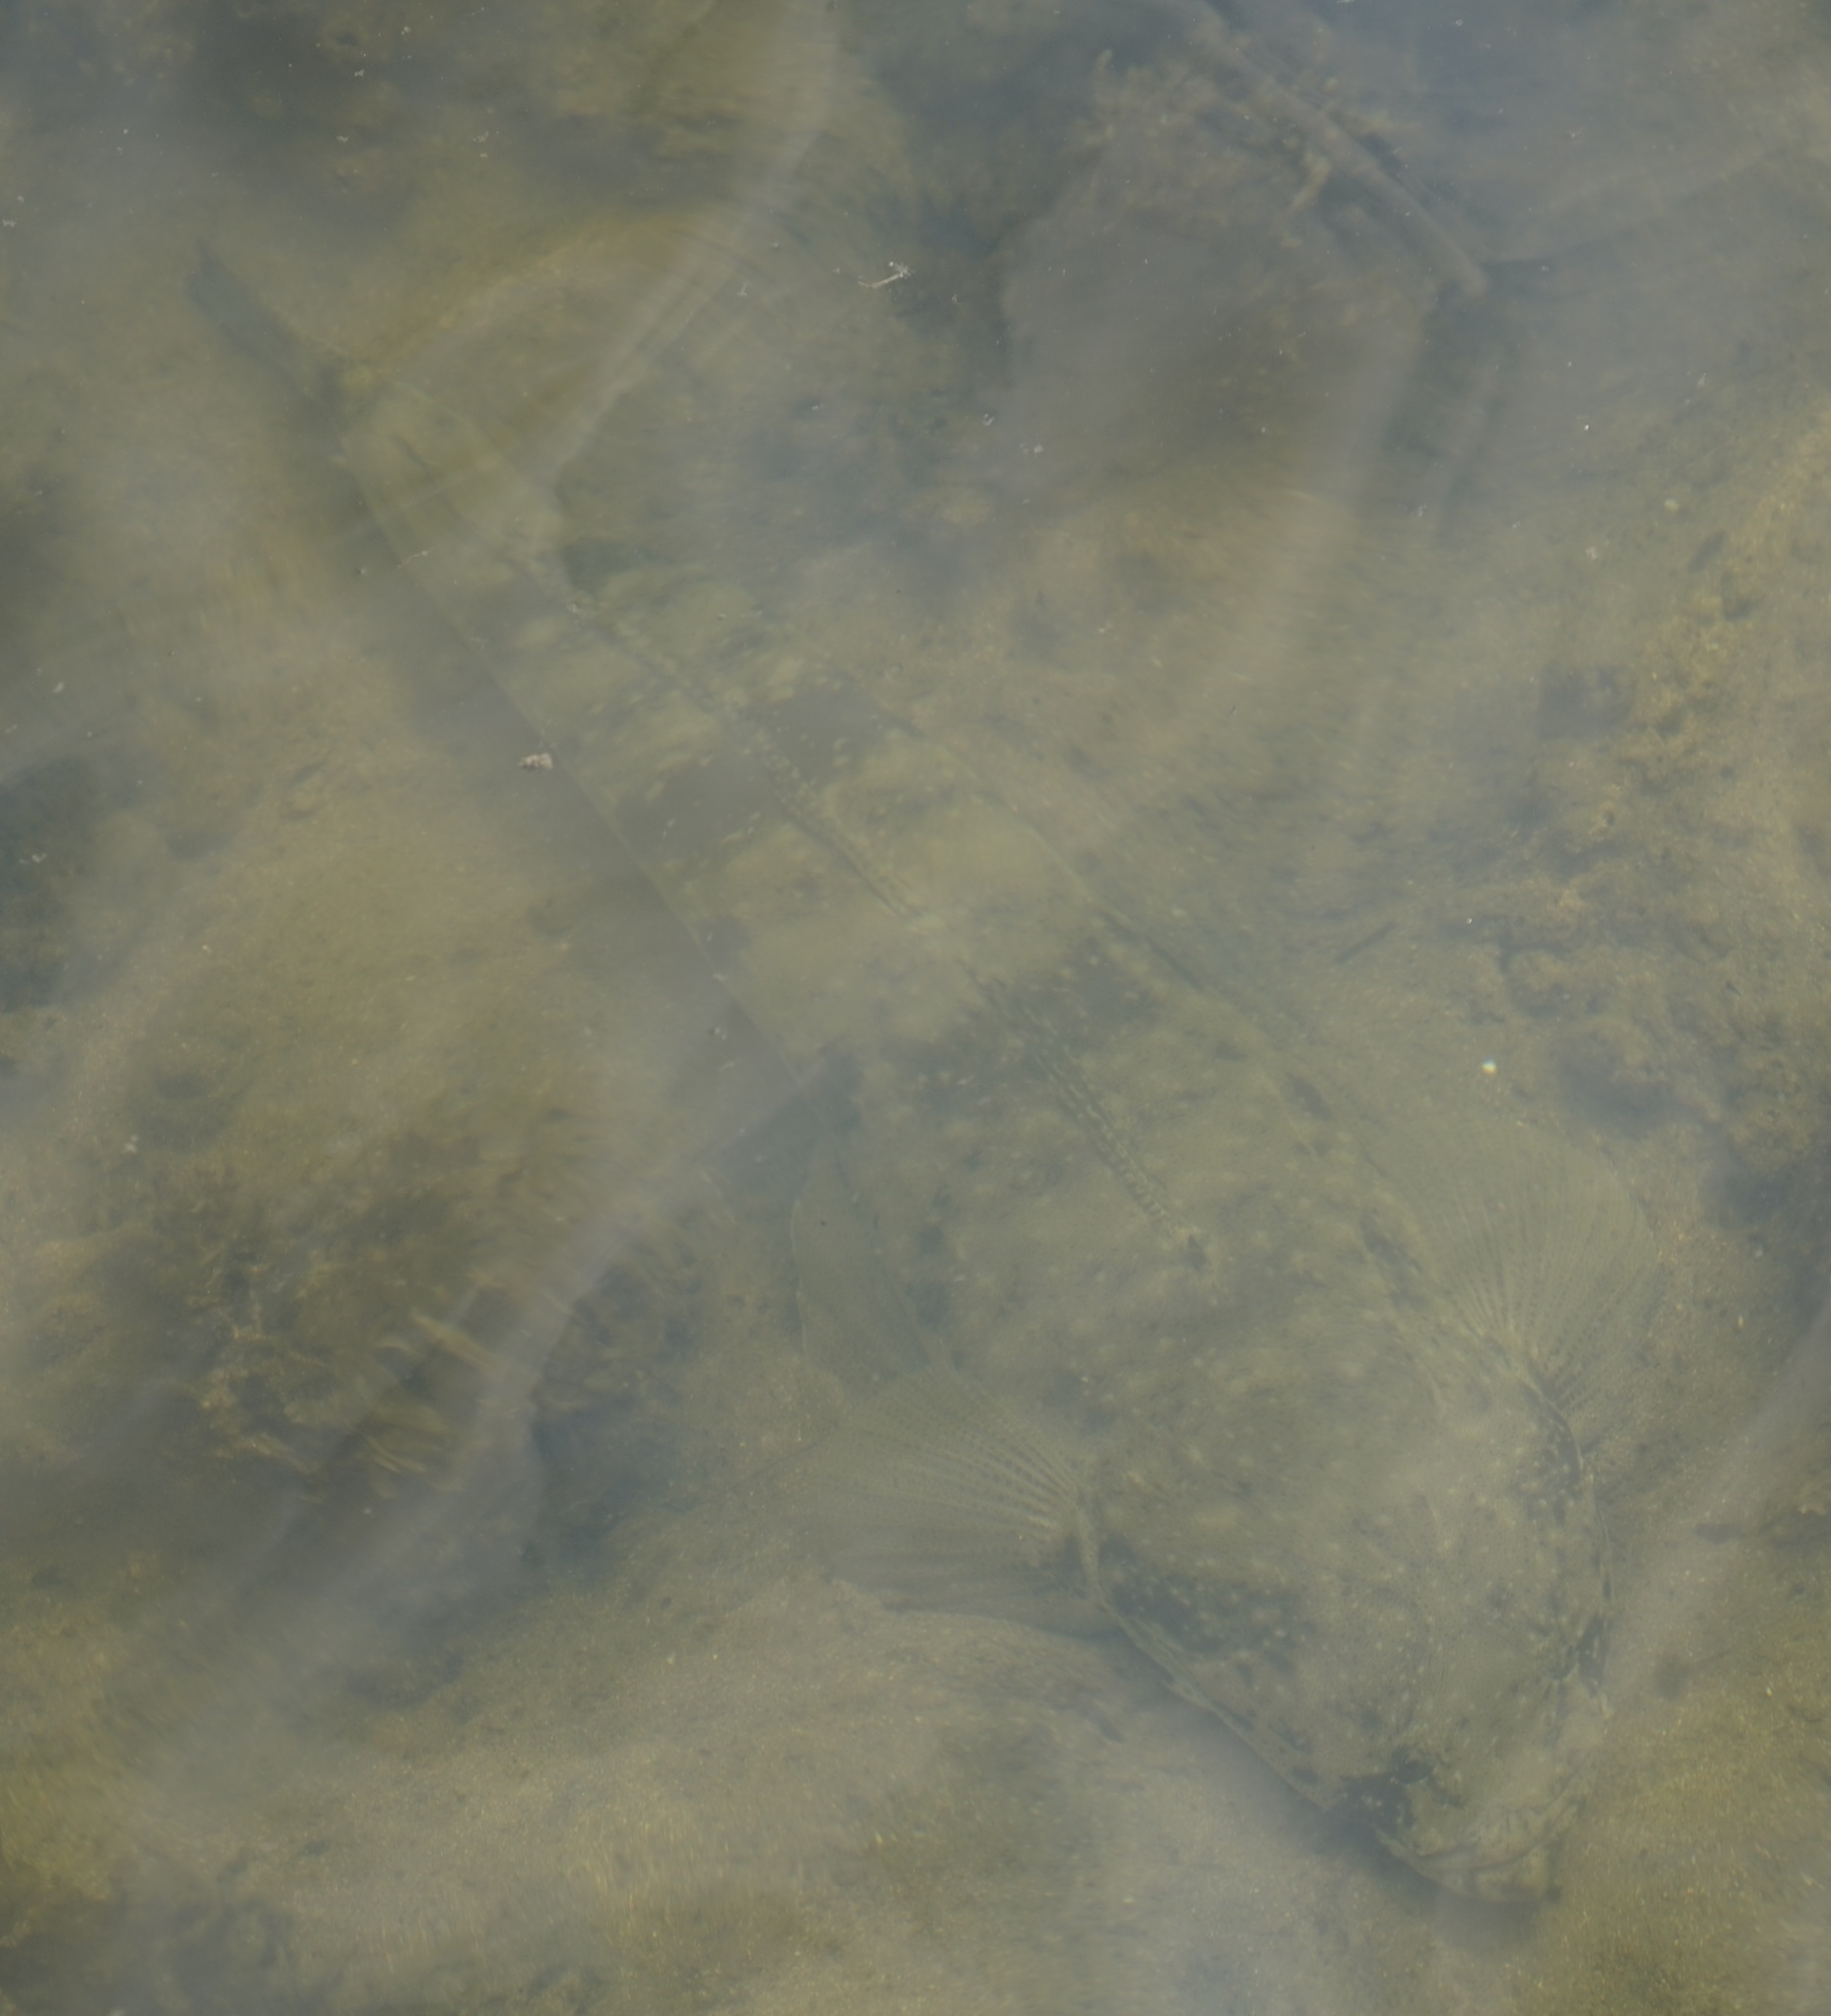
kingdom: Animalia
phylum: Chordata
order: Scorpaeniformes
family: Platycephalidae
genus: Platycephalus
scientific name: Platycephalus fuscus
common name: Dusky flathead
